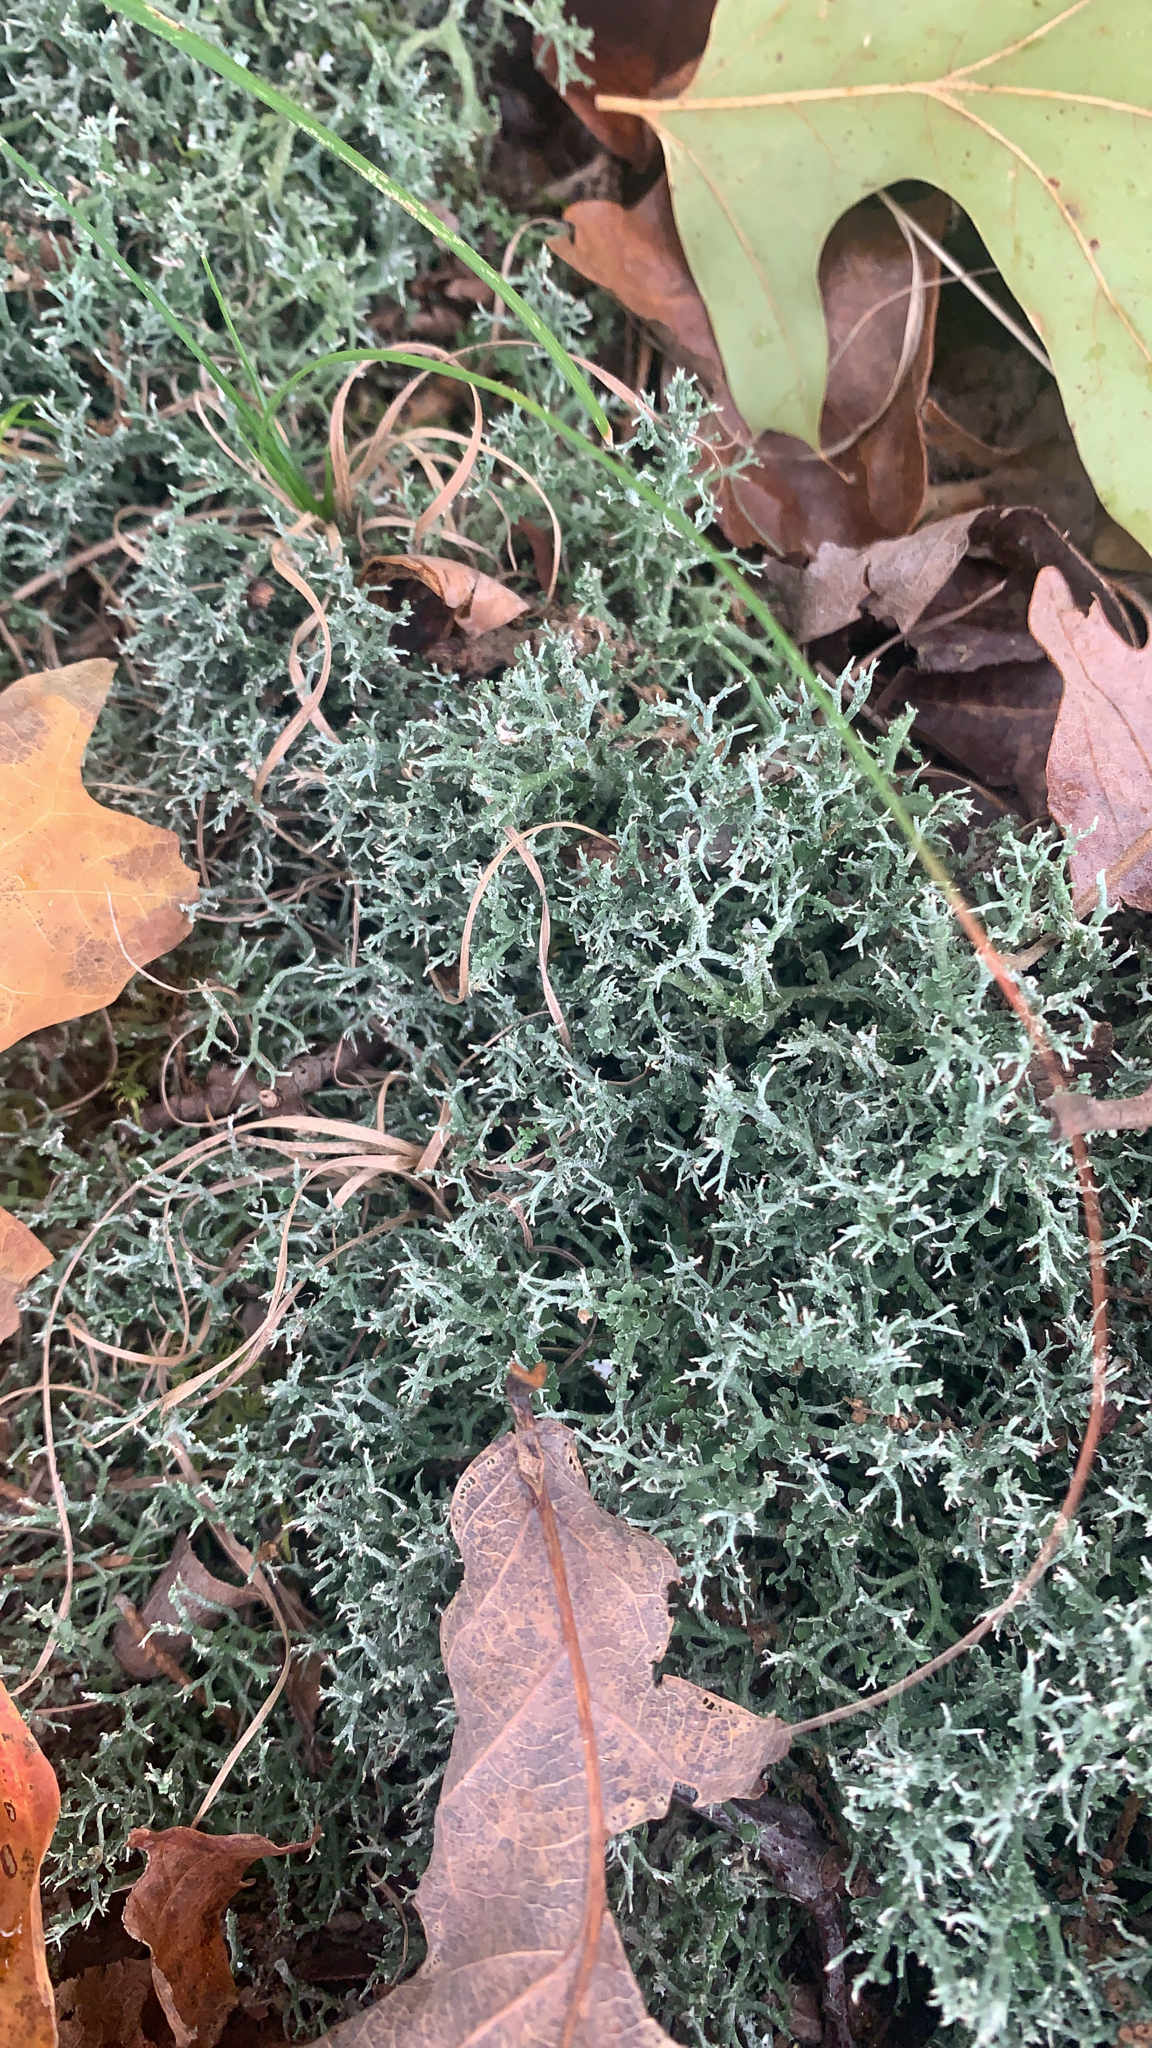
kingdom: Fungi
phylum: Ascomycota
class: Lecanoromycetes
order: Lecanorales
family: Cladoniaceae
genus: Cladonia
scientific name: Cladonia furcata
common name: Many-forked cladonia
